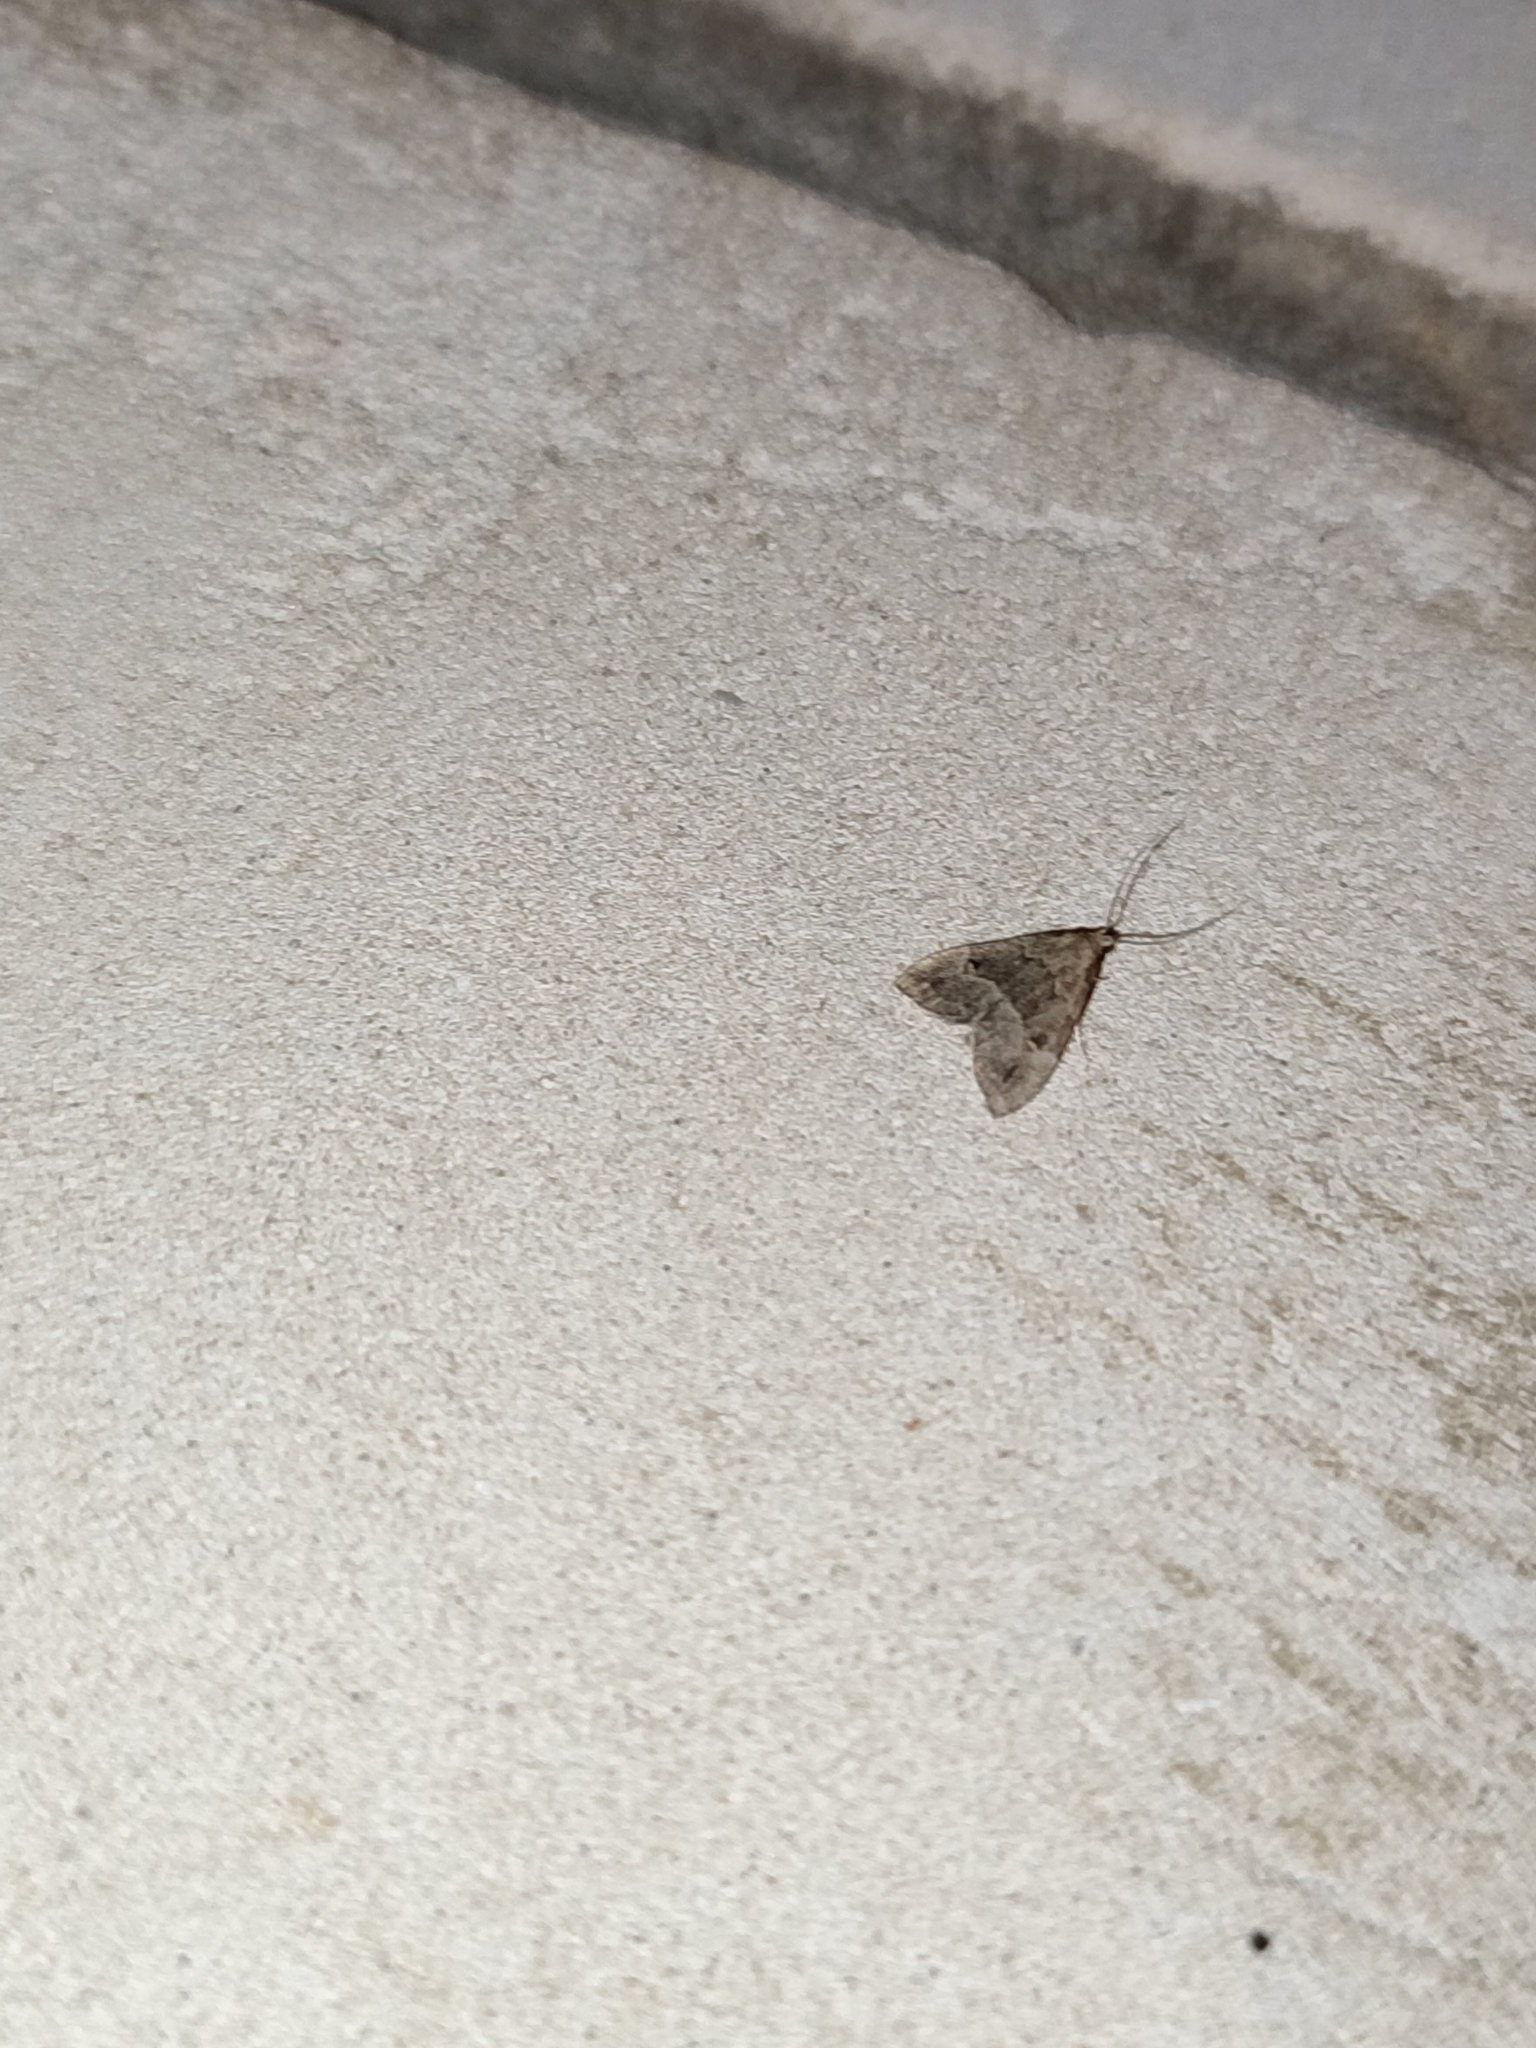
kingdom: Animalia
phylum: Arthropoda
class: Insecta
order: Lepidoptera
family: Erebidae
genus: Schrankia
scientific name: Schrankia taenialis
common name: White-line snout
